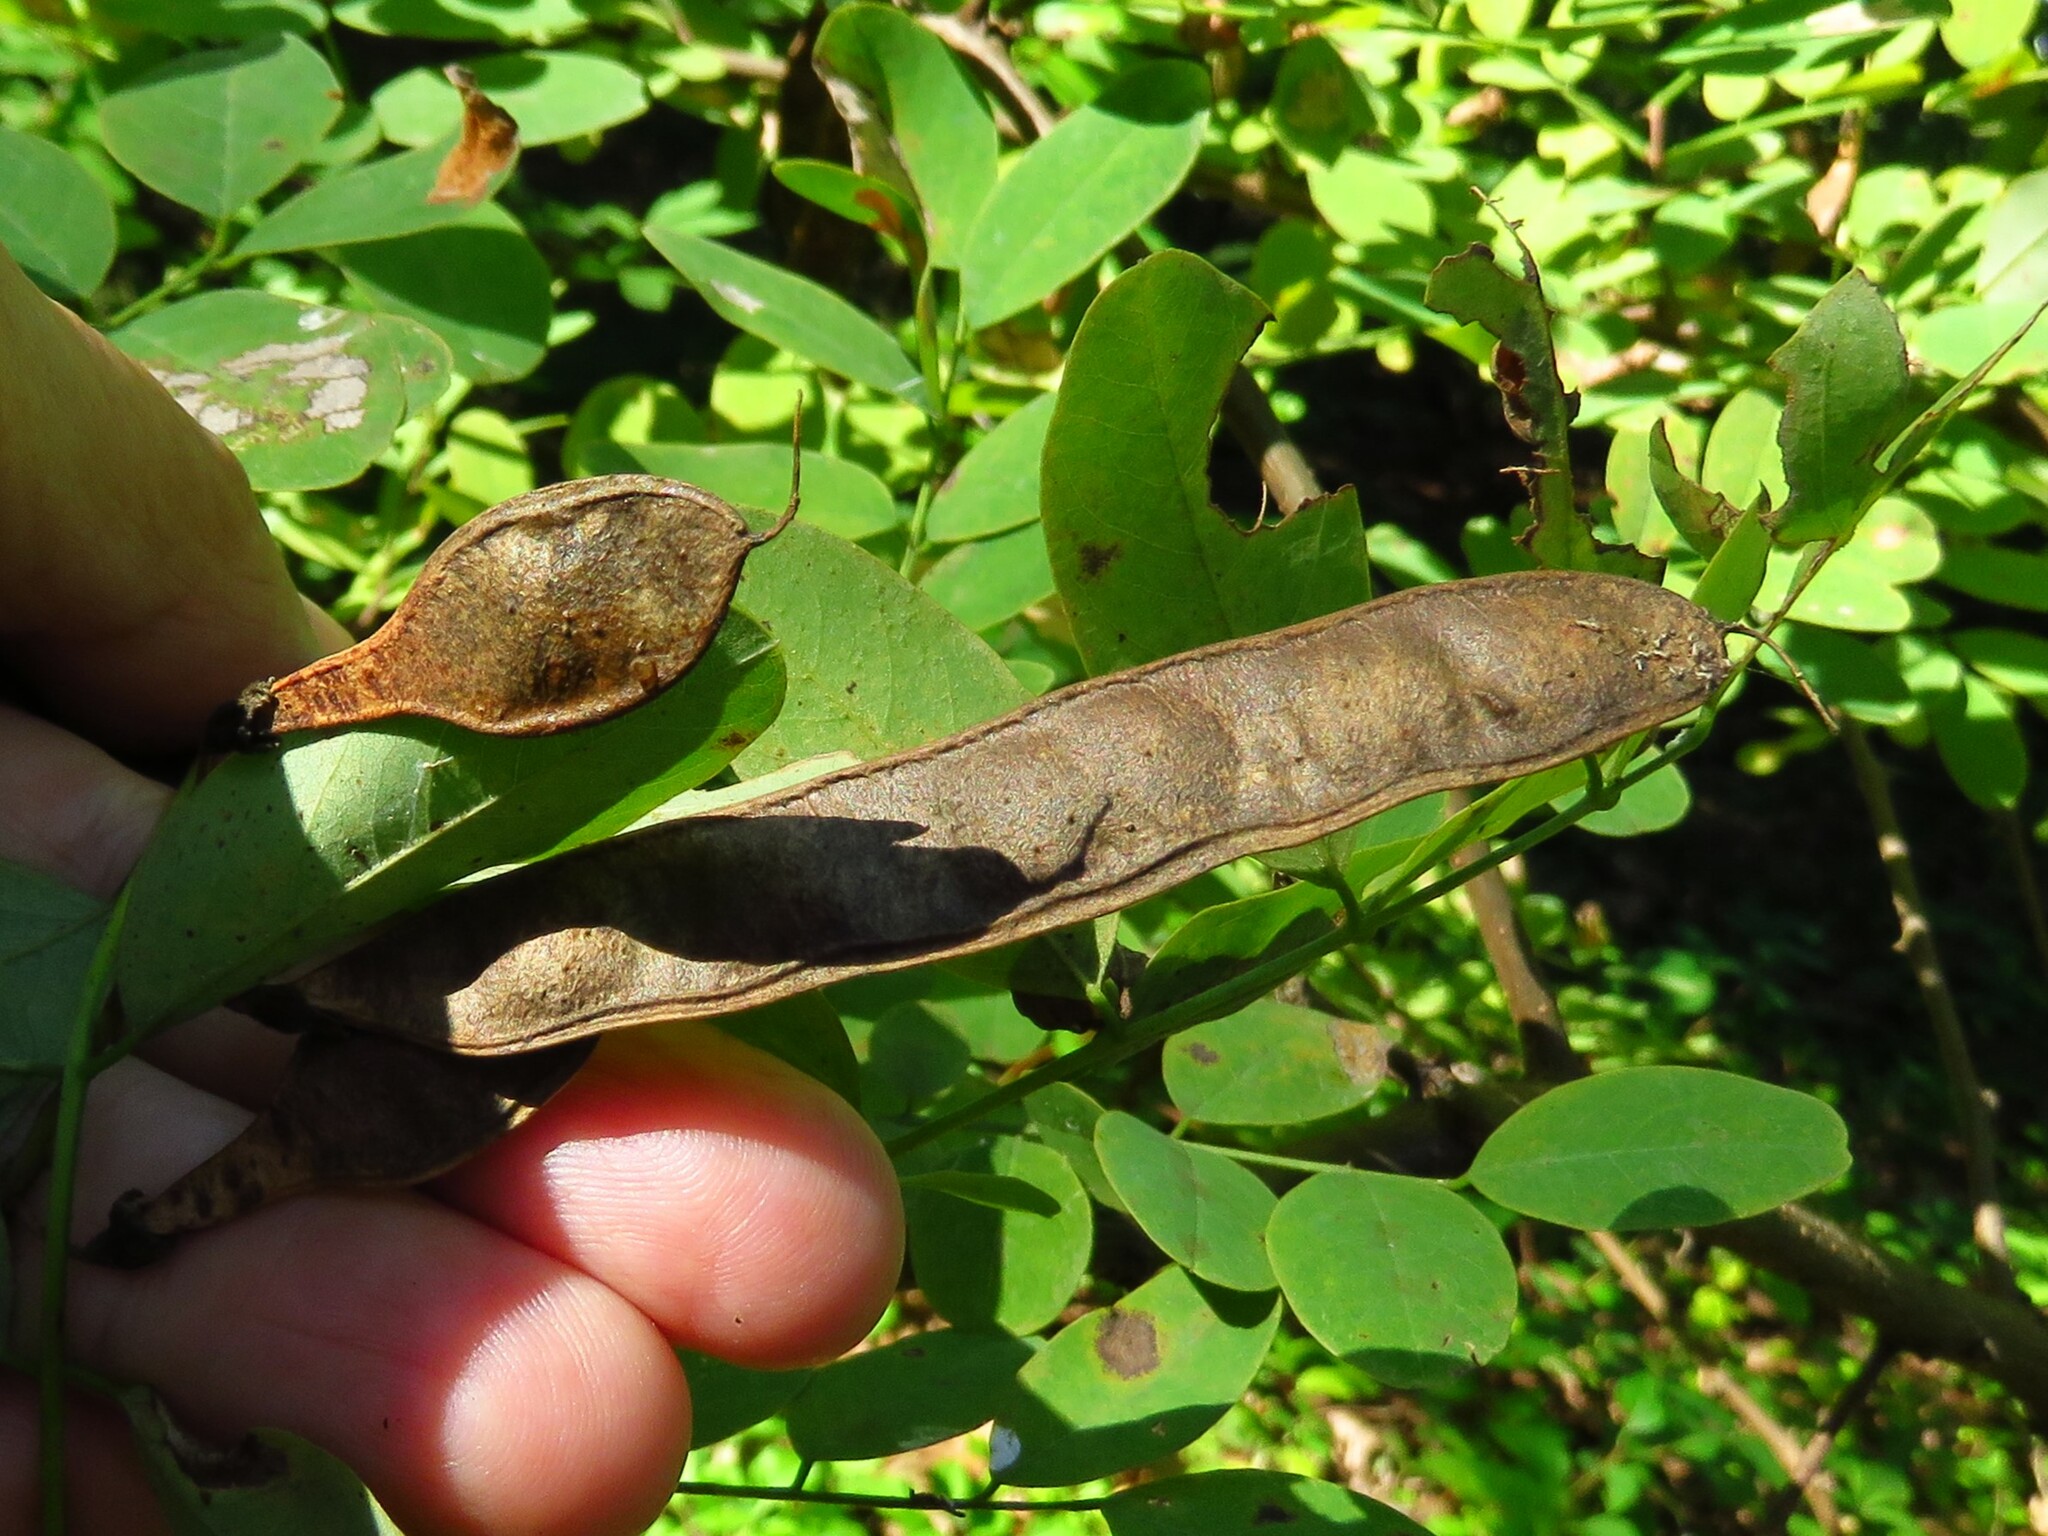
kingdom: Plantae
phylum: Tracheophyta
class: Magnoliopsida
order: Fabales
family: Fabaceae
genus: Robinia
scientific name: Robinia pseudoacacia
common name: Black locust
